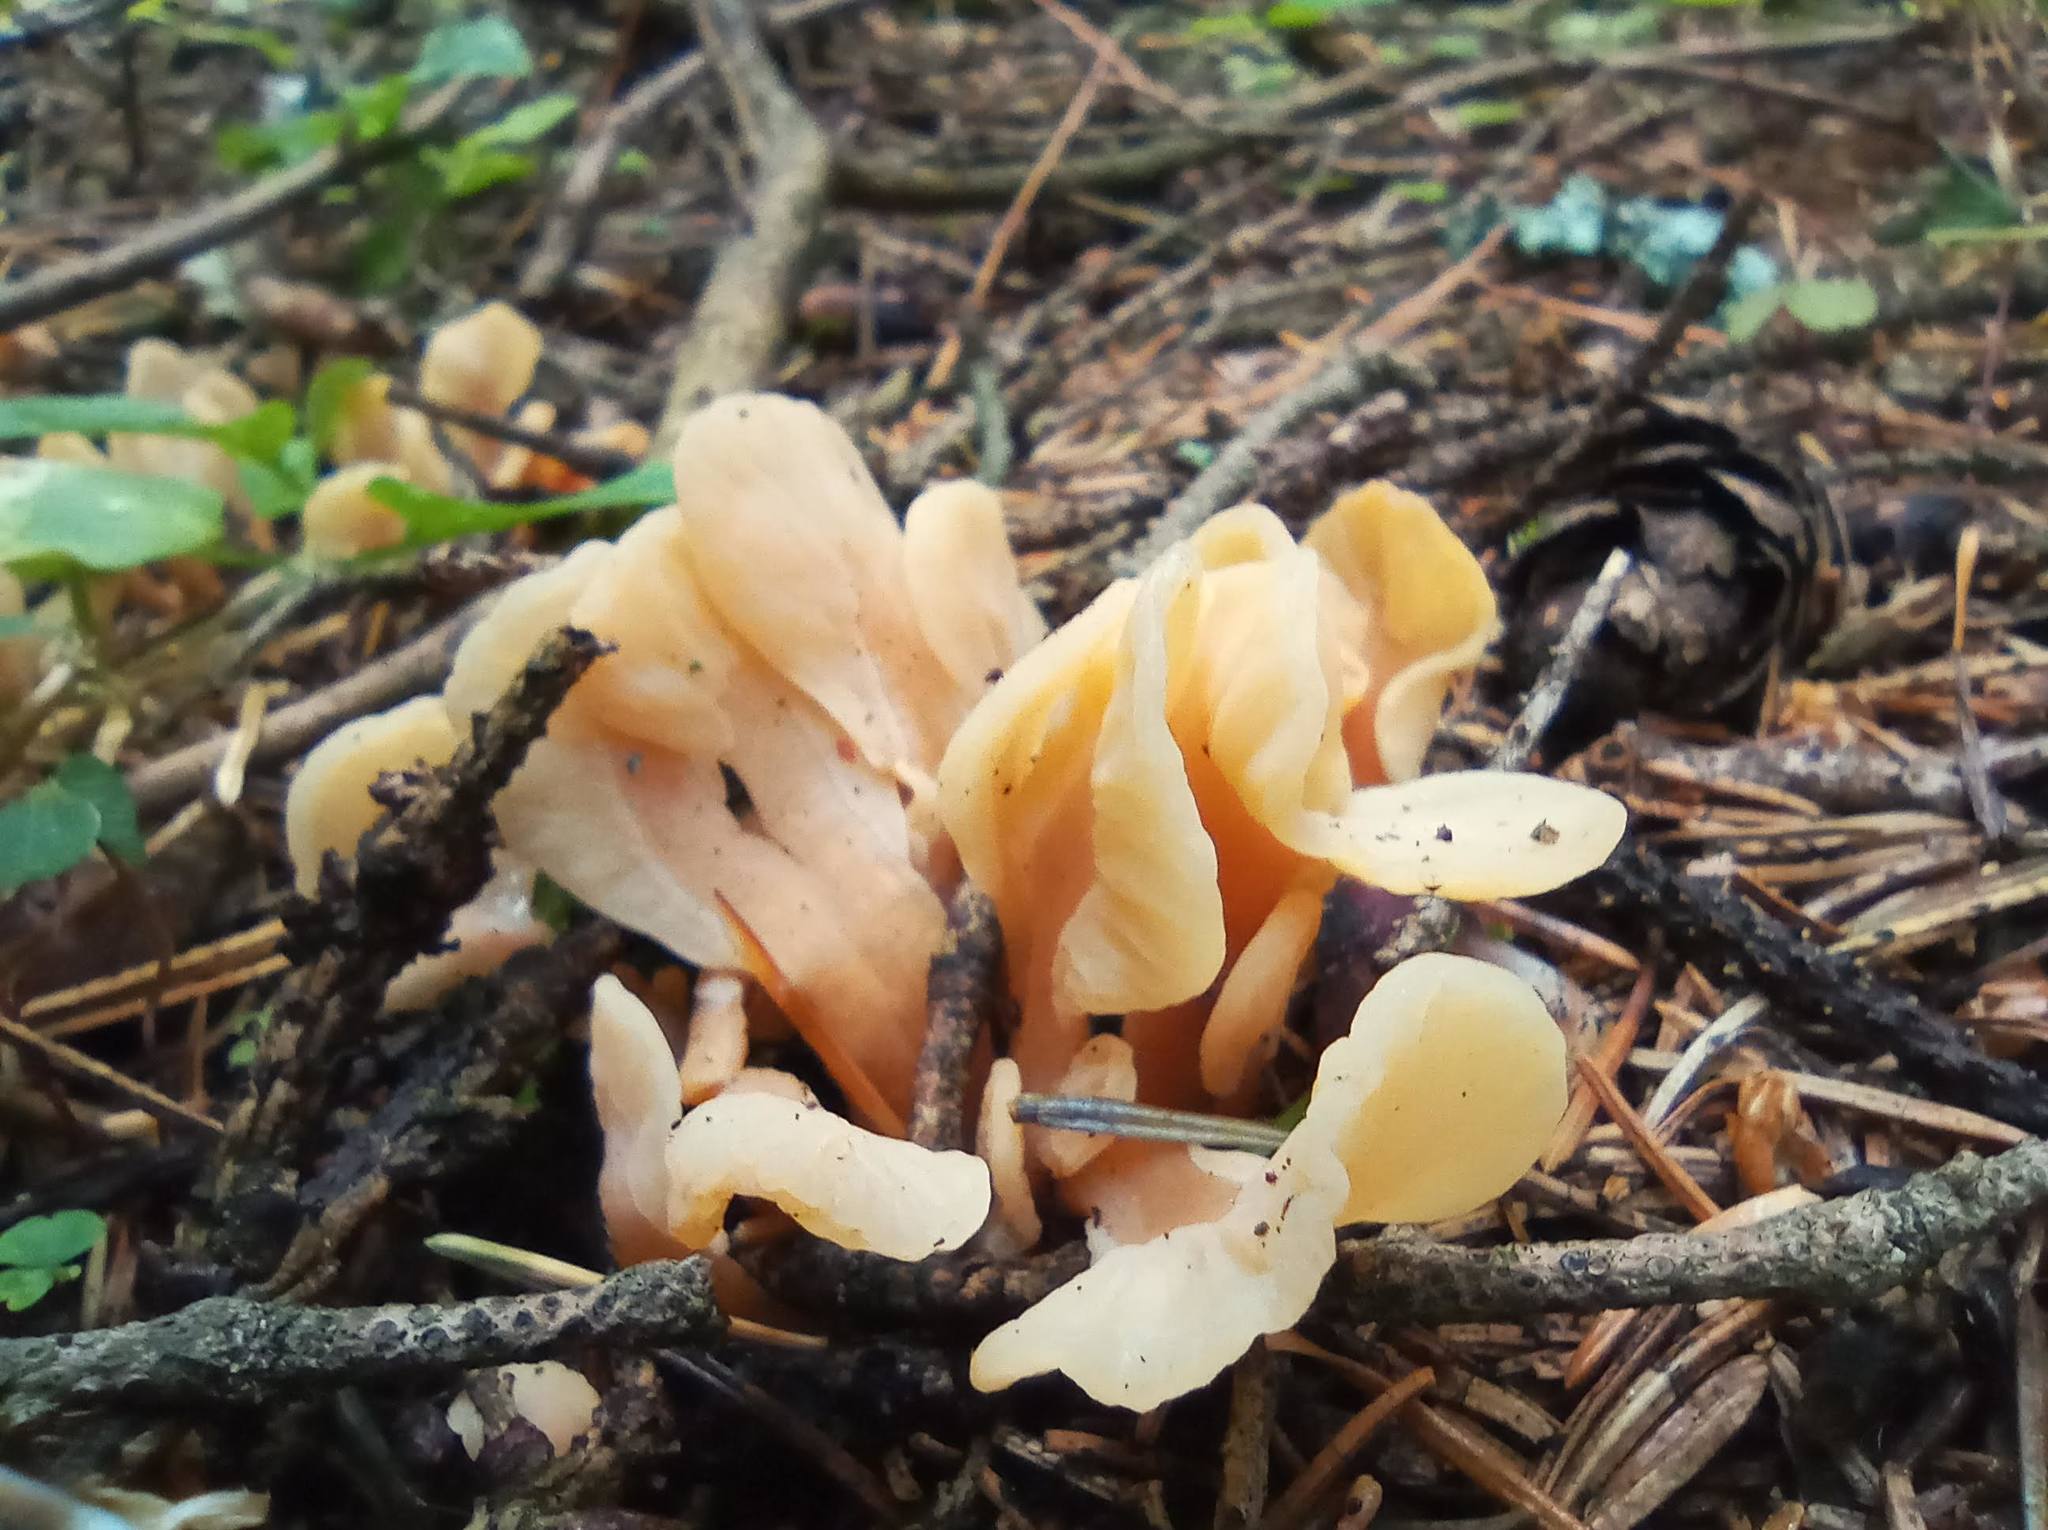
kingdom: Fungi
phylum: Ascomycota
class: Leotiomycetes
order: Rhytismatales
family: Cudoniaceae
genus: Spathularia
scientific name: Spathularia rufa
